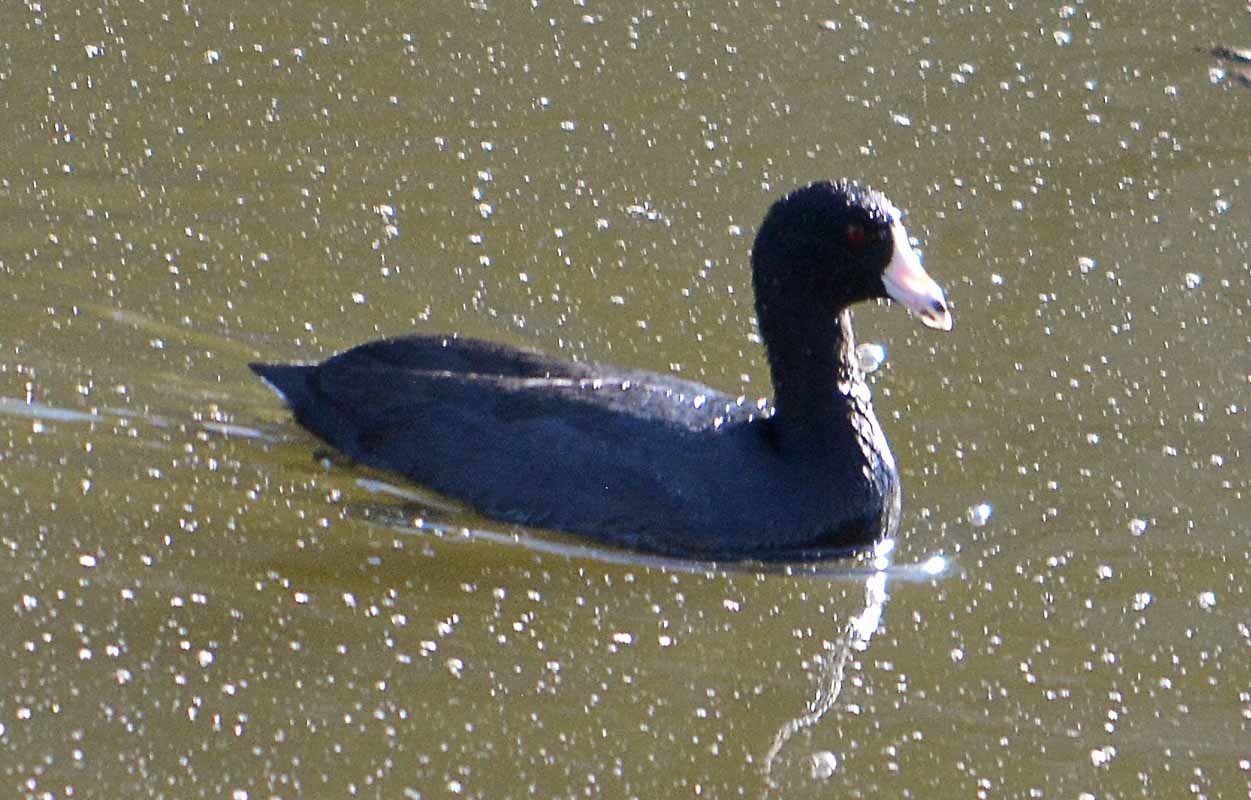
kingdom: Animalia
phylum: Chordata
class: Aves
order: Gruiformes
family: Rallidae
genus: Fulica
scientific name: Fulica americana
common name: American coot
